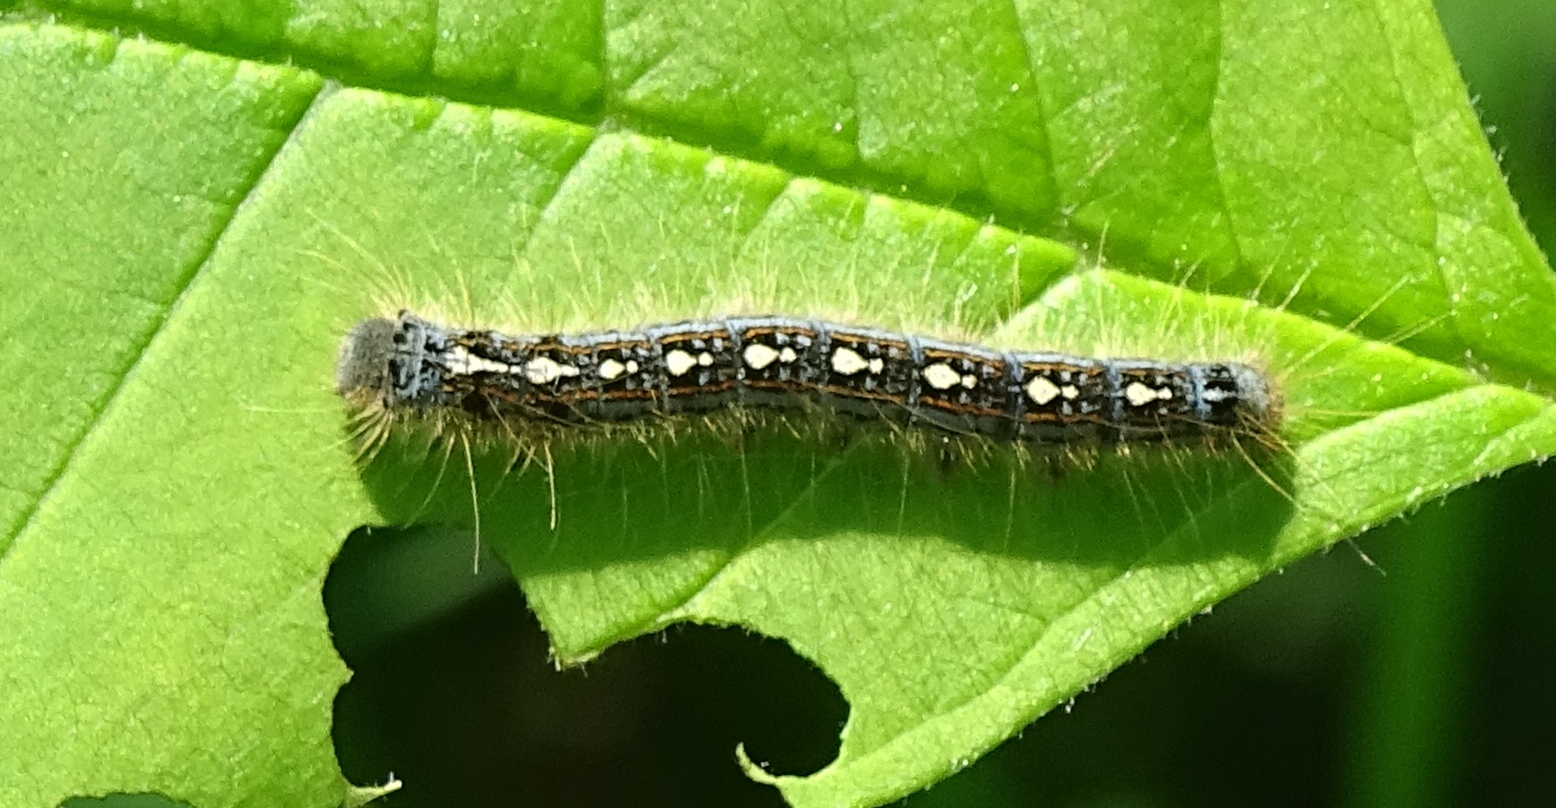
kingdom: Animalia
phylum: Arthropoda
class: Insecta
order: Lepidoptera
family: Lasiocampidae
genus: Malacosoma
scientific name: Malacosoma disstria
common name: Forest tent caterpillar
